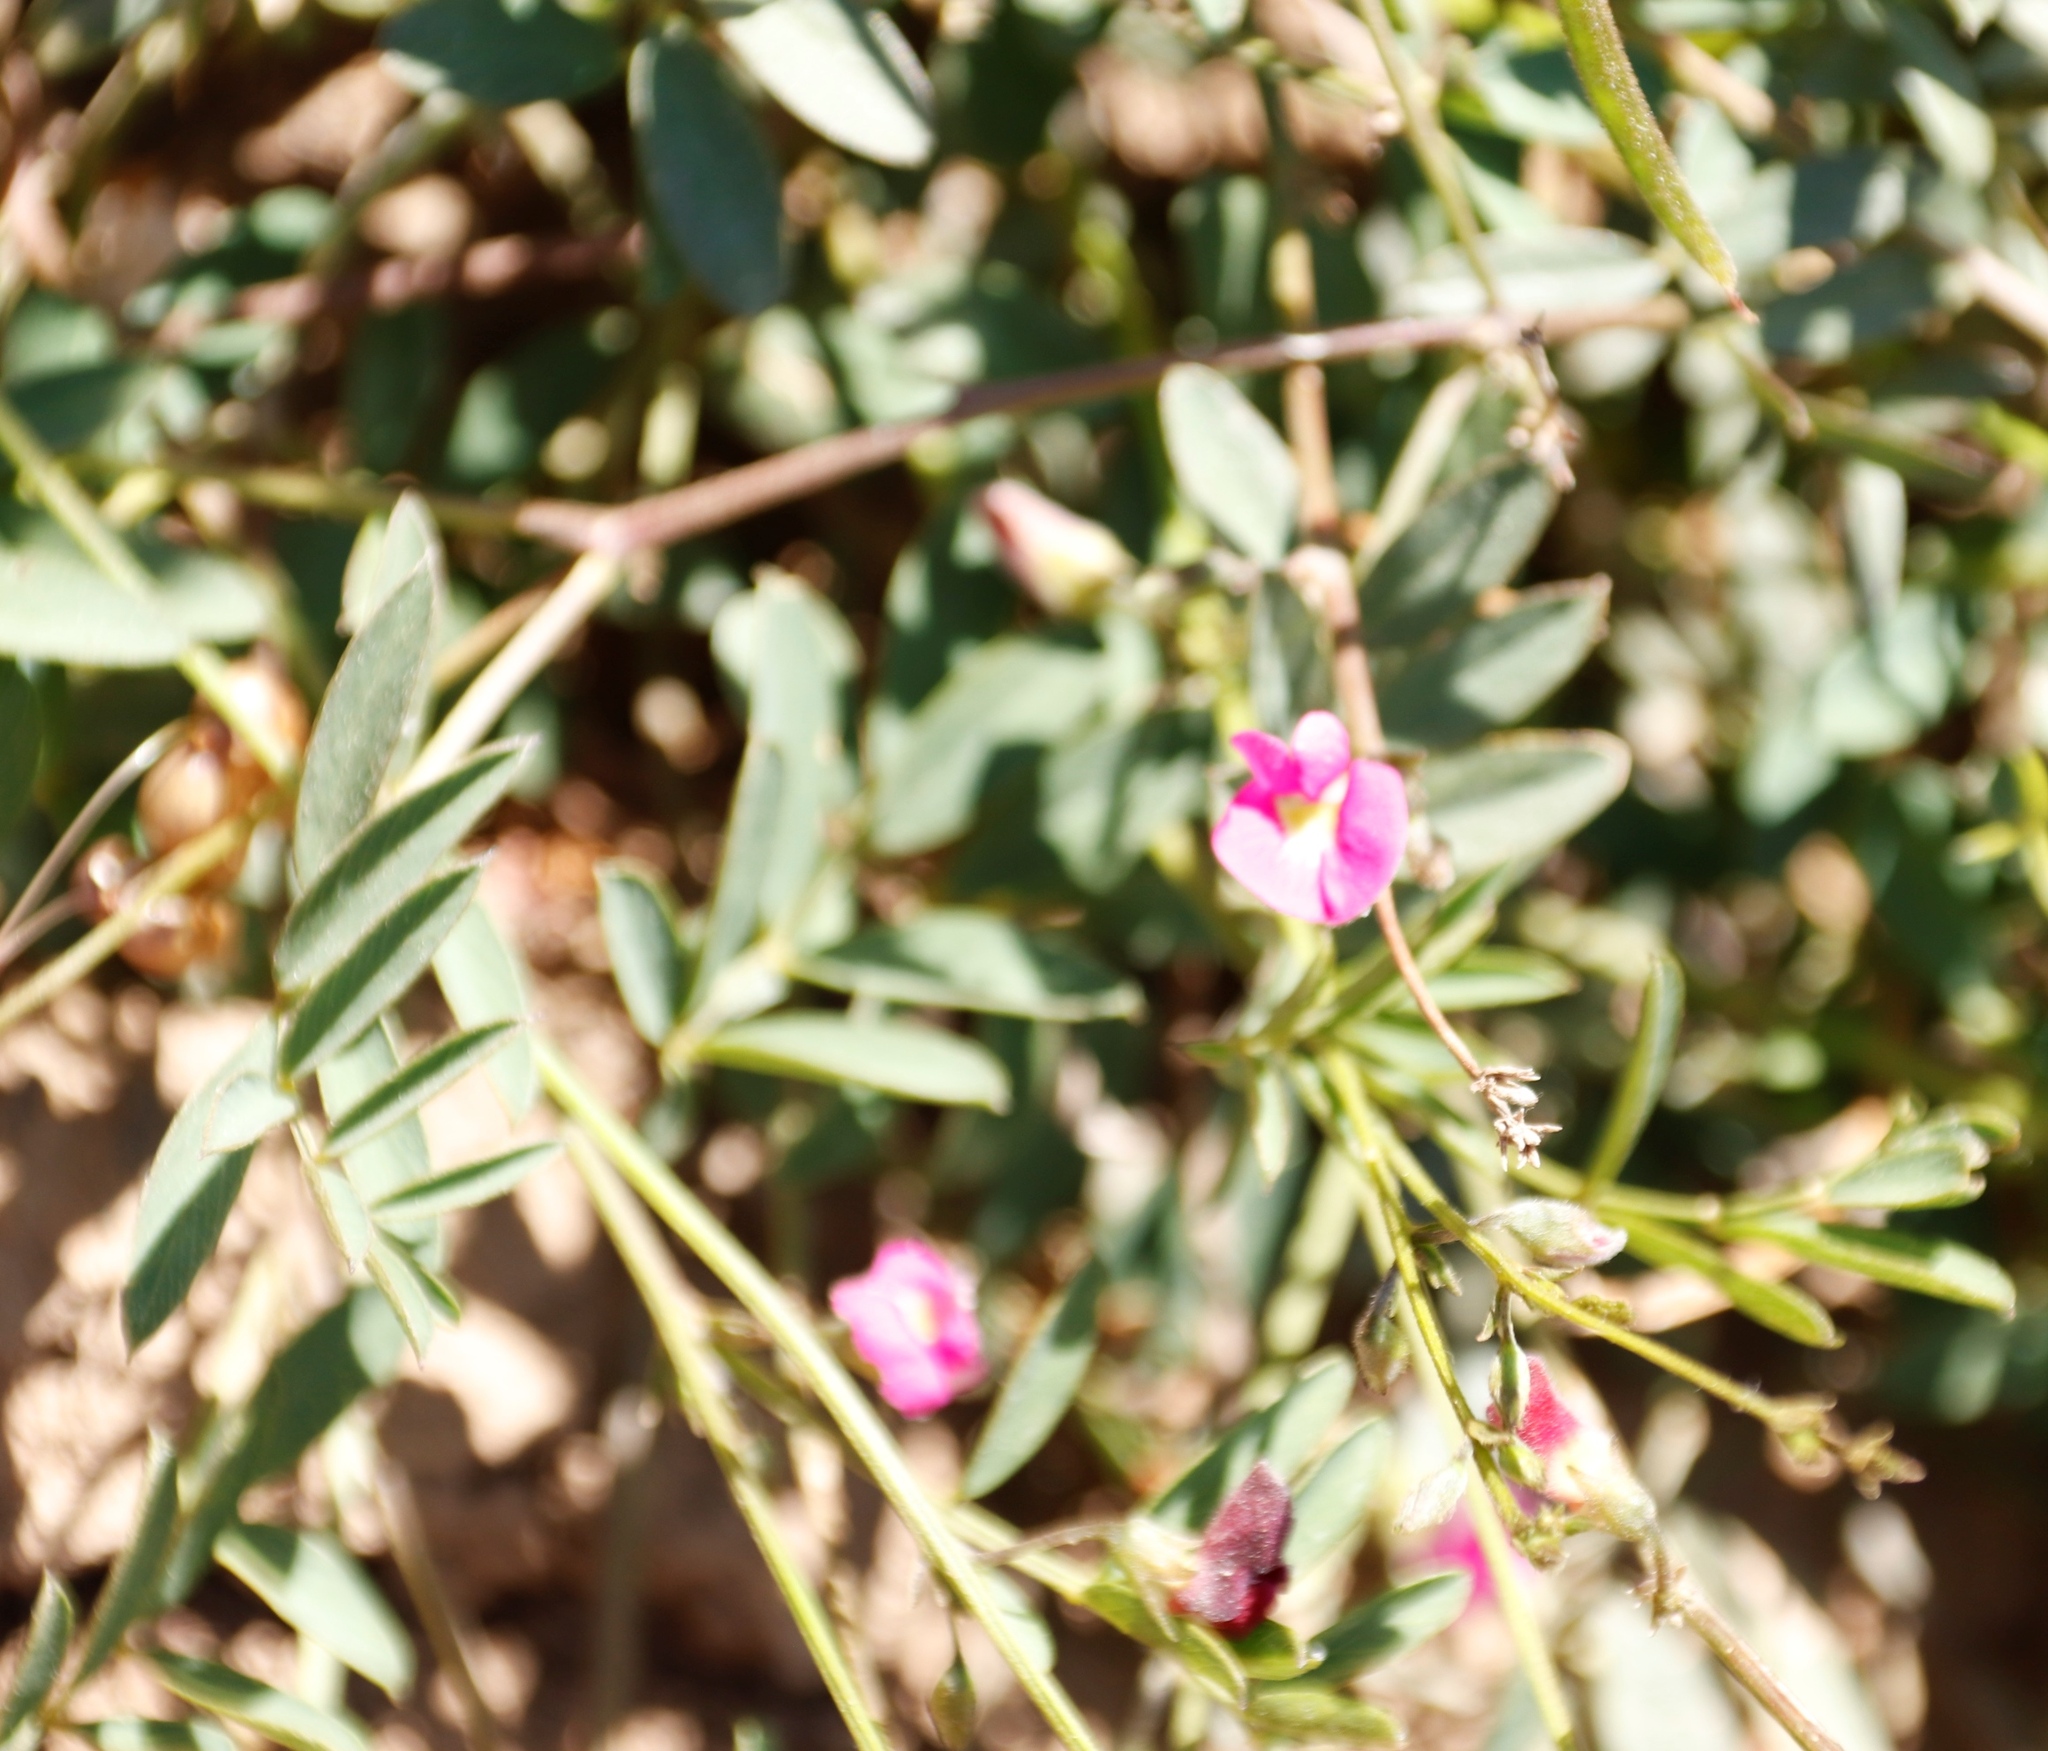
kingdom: Plantae
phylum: Tracheophyta
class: Magnoliopsida
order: Fabales
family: Fabaceae
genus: Tephrosia
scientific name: Tephrosia capensis
